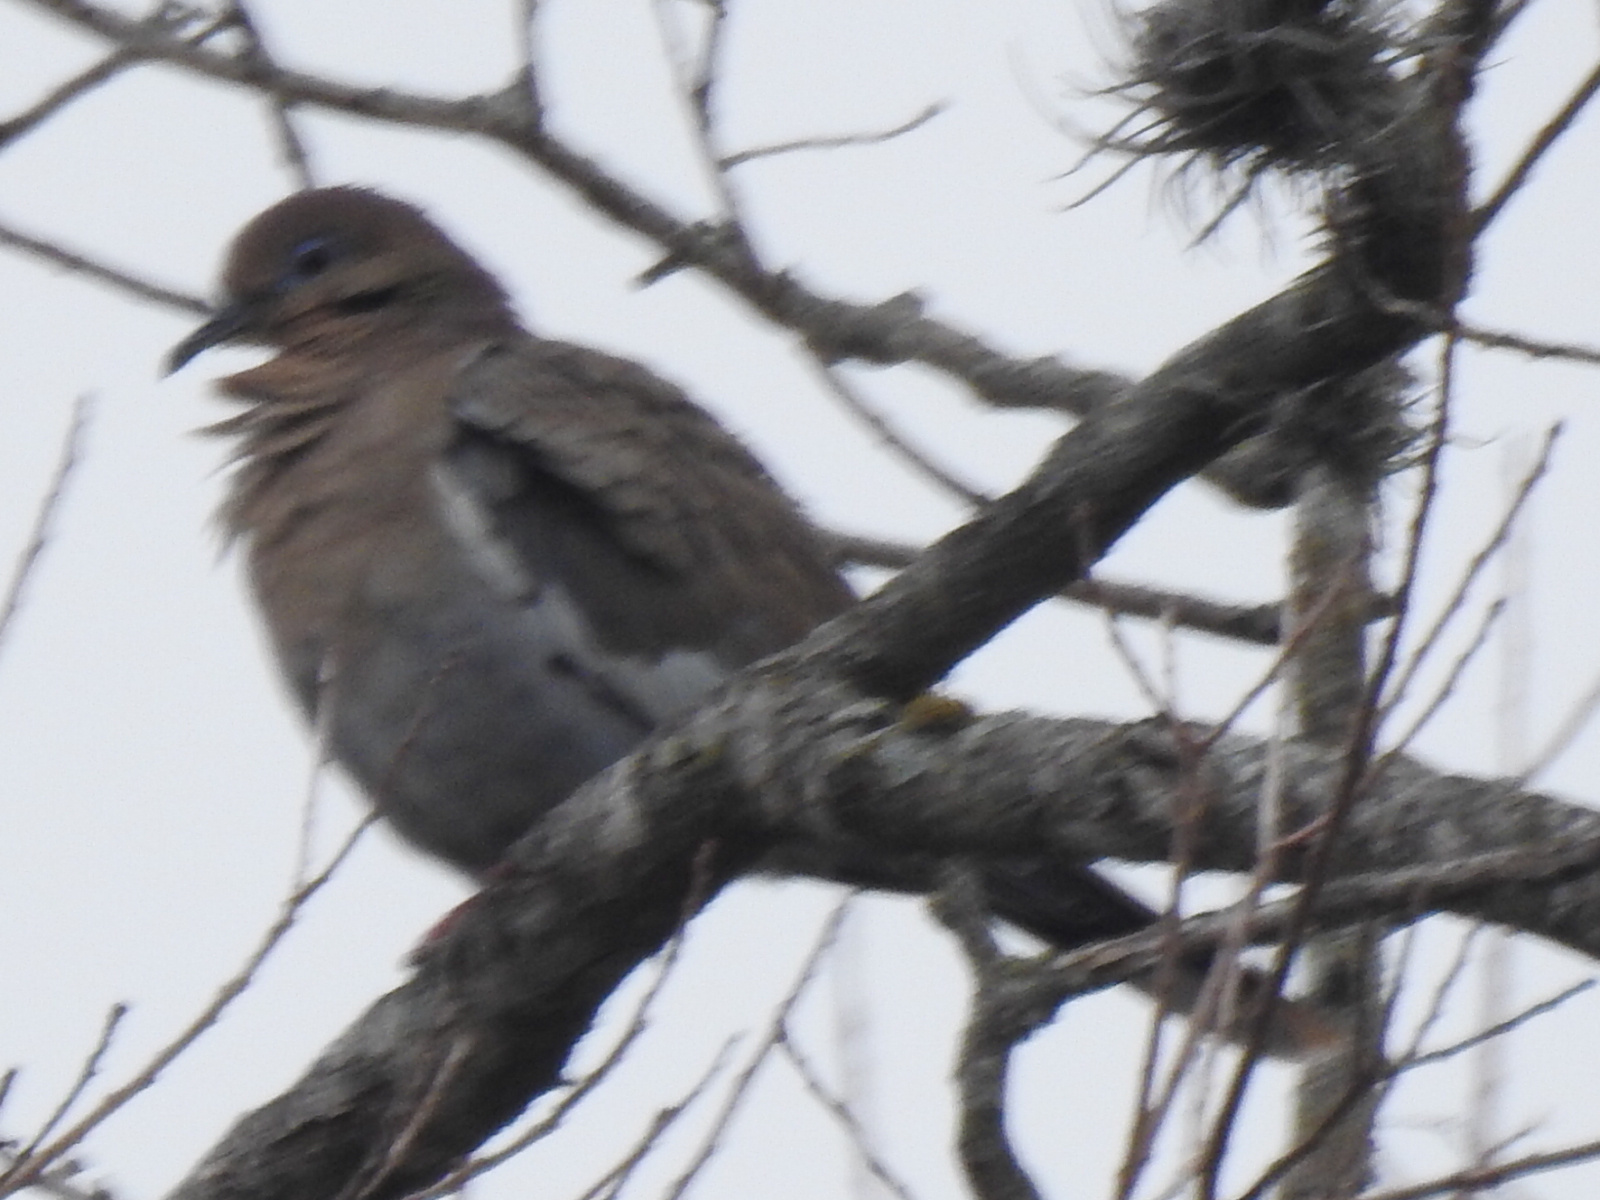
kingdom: Animalia
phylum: Chordata
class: Aves
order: Columbiformes
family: Columbidae
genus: Zenaida
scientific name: Zenaida asiatica
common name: White-winged dove
